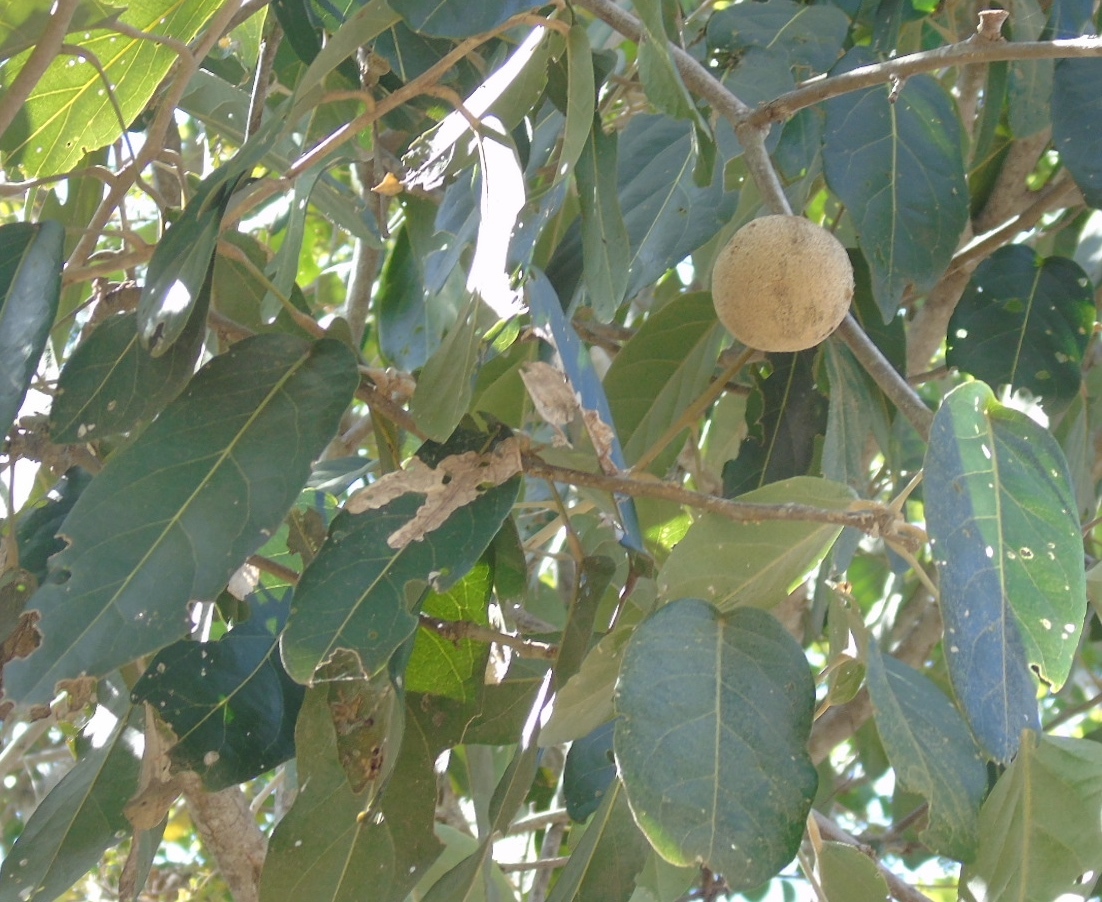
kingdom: Plantae
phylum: Tracheophyta
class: Magnoliopsida
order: Brassicales
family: Capparaceae
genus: Morisonia
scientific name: Morisonia americana
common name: Wild mesple
